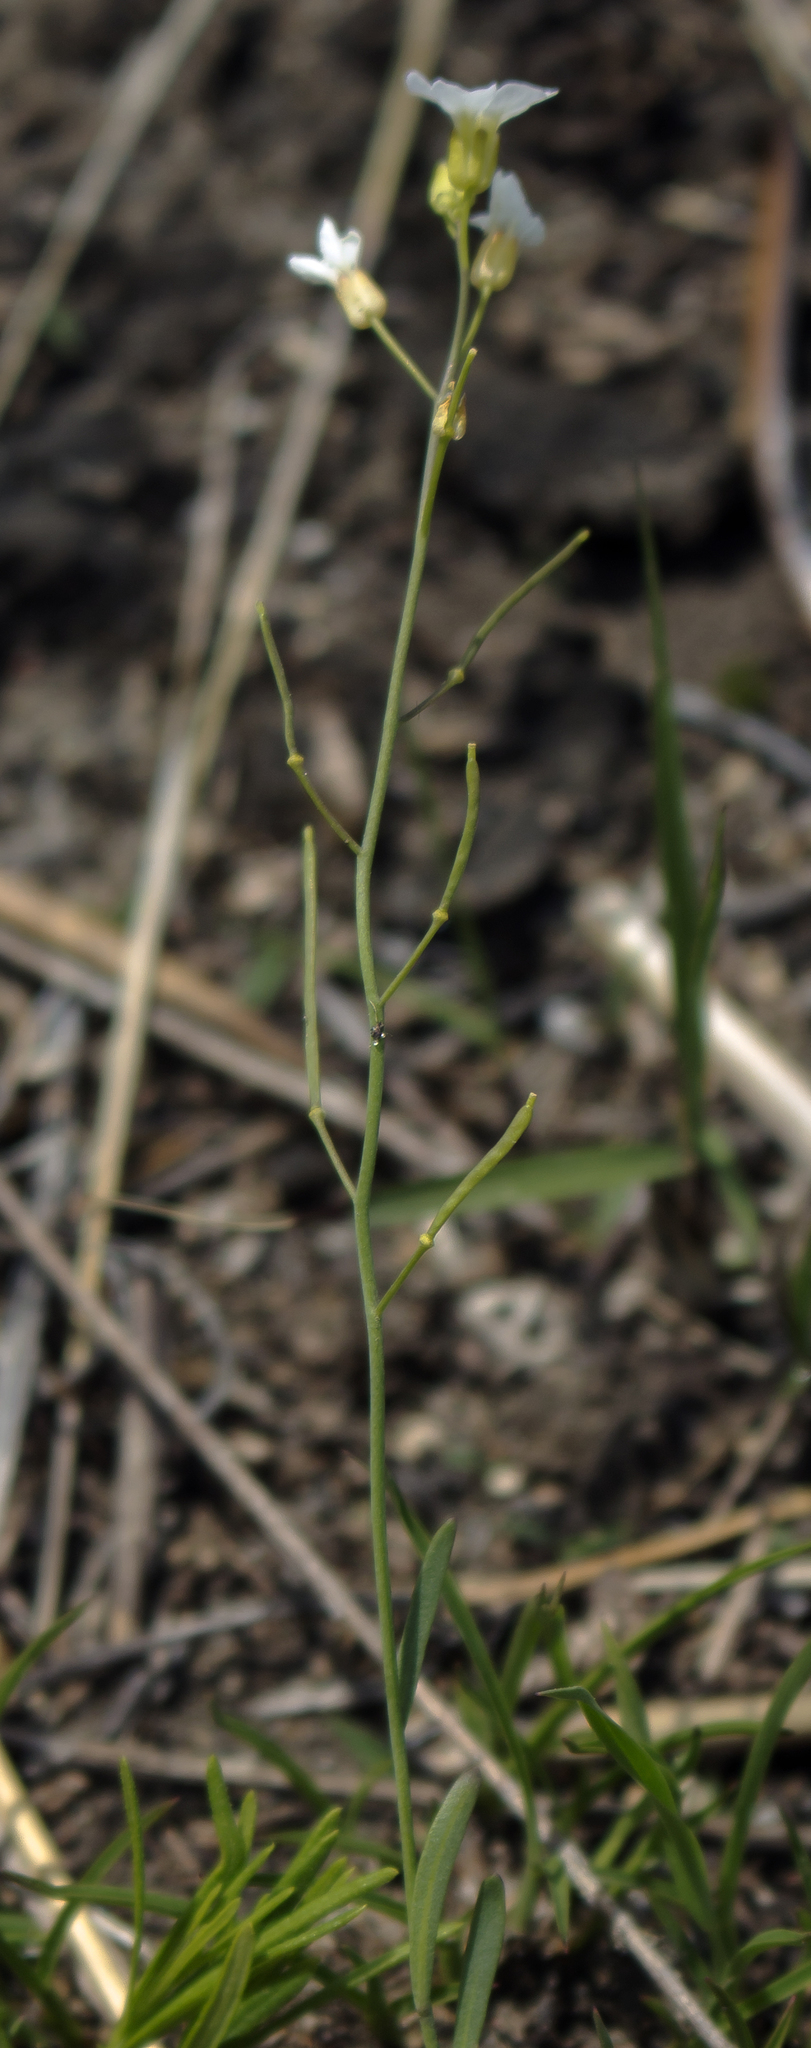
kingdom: Plantae
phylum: Tracheophyta
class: Magnoliopsida
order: Brassicales
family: Brassicaceae
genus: Arabidopsis
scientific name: Arabidopsis lyrata
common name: Lyrate rockcress
